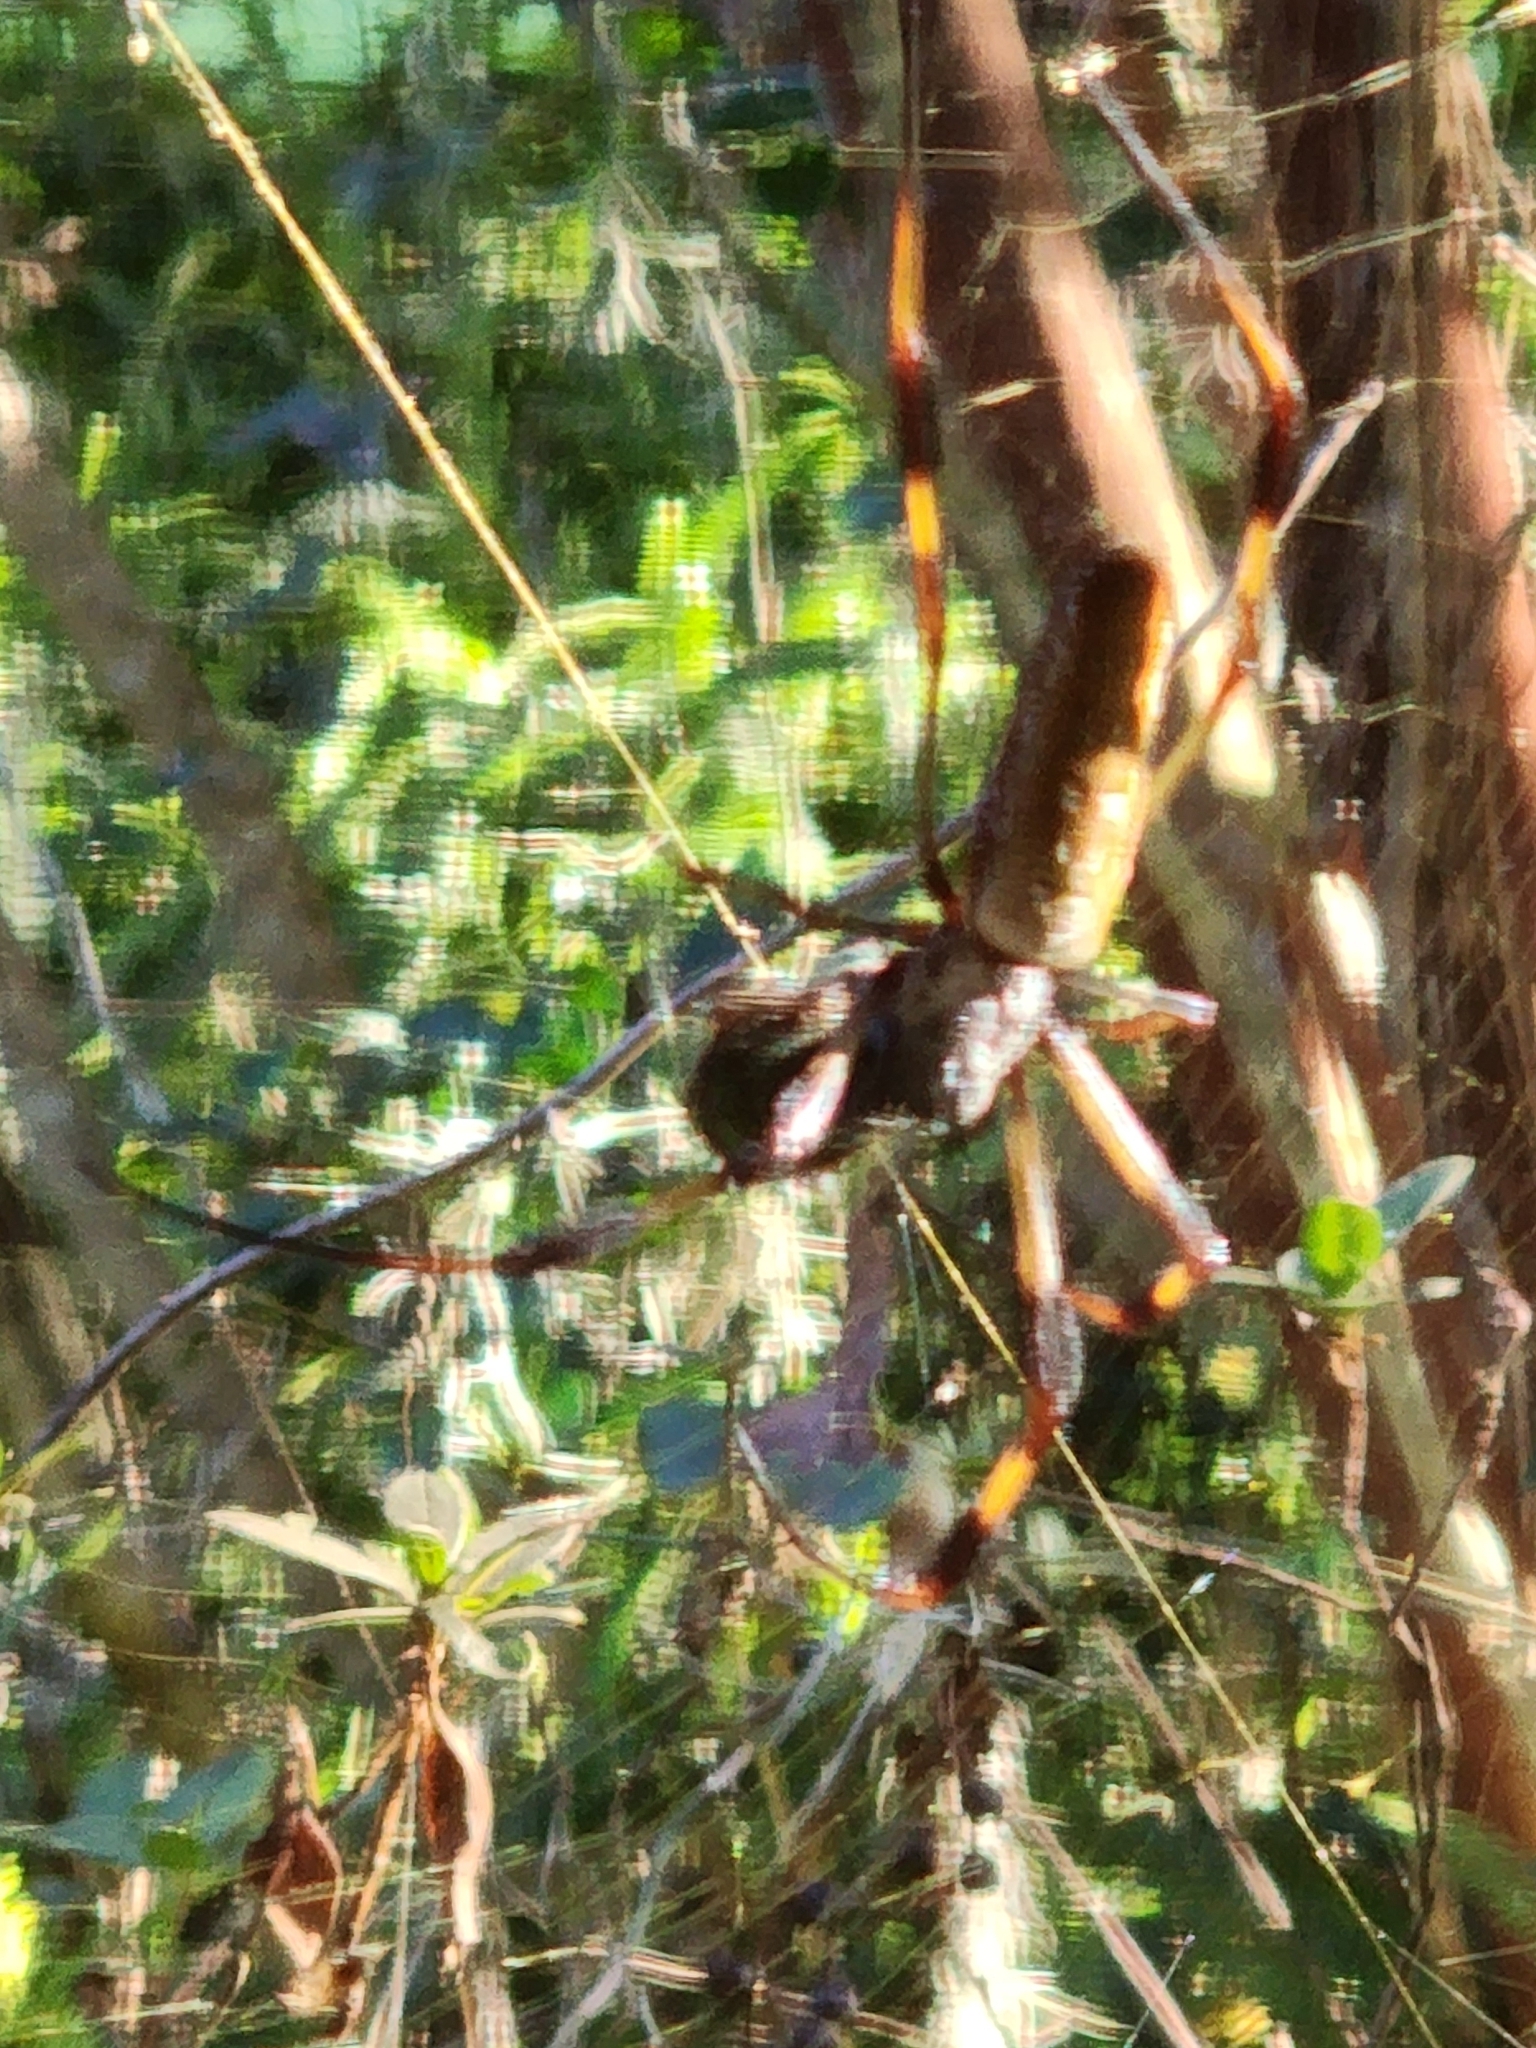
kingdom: Animalia
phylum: Arthropoda
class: Arachnida
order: Araneae
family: Araneidae
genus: Trichonephila
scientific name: Trichonephila clavipes
